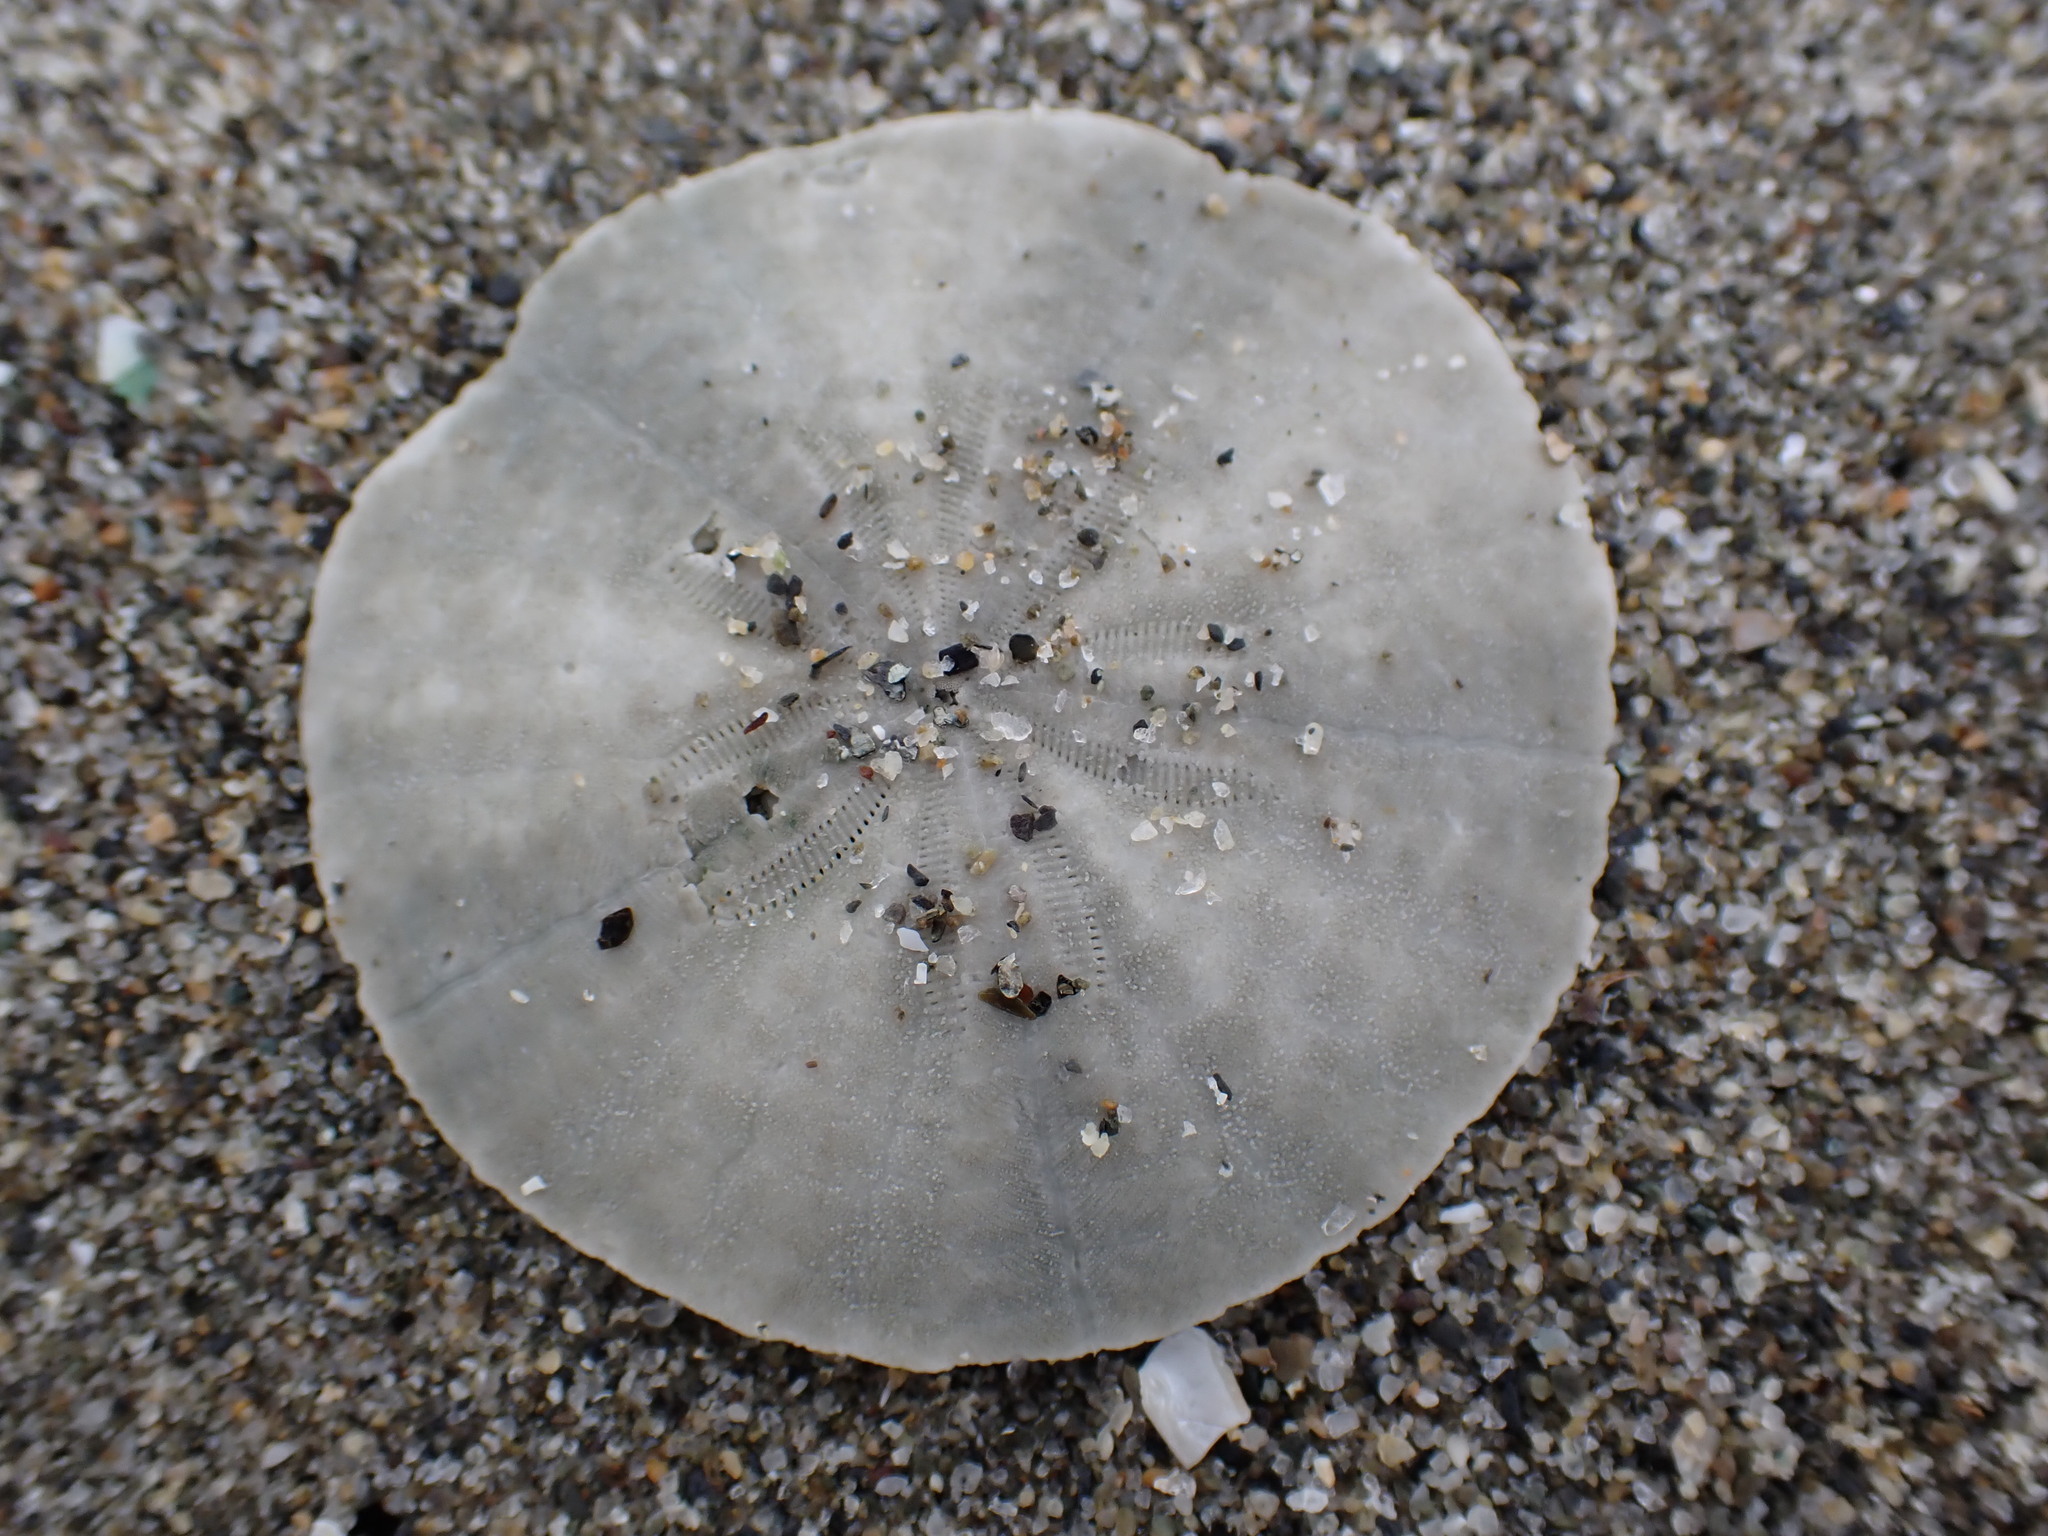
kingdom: Animalia
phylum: Echinodermata
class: Echinoidea
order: Clypeasteroida
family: Clypeasteridae
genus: Fellaster
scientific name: Fellaster zelandiae
